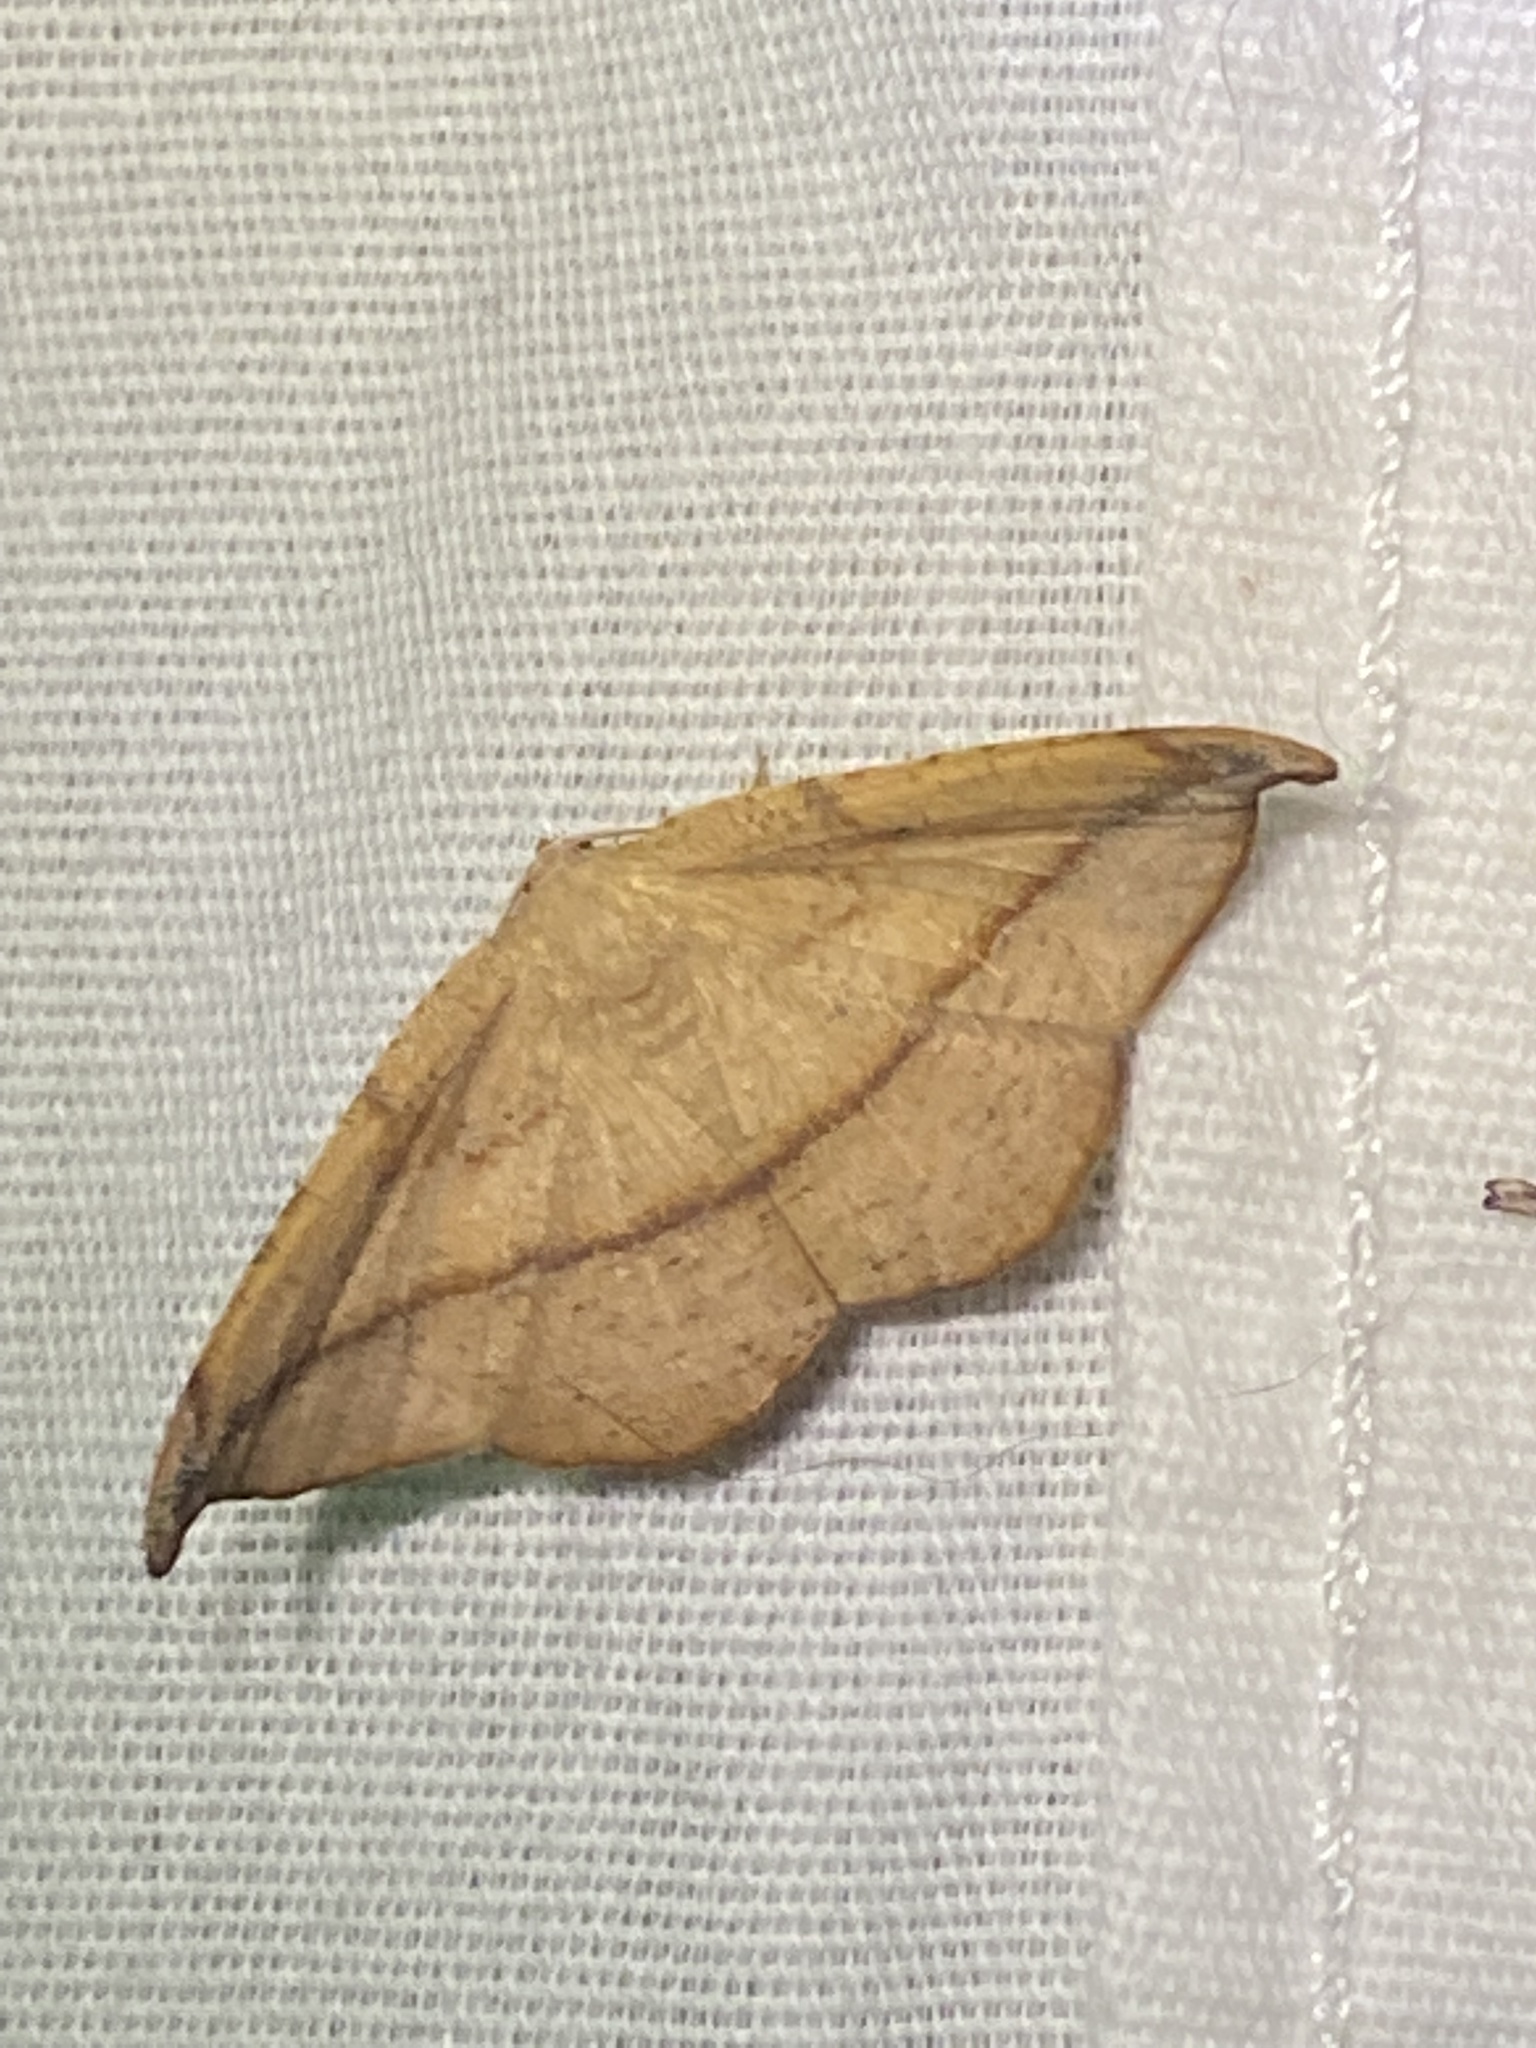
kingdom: Animalia
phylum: Arthropoda
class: Insecta
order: Lepidoptera
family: Geometridae
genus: Patalene
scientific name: Patalene olyzonaria
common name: Juniper geometer moth
